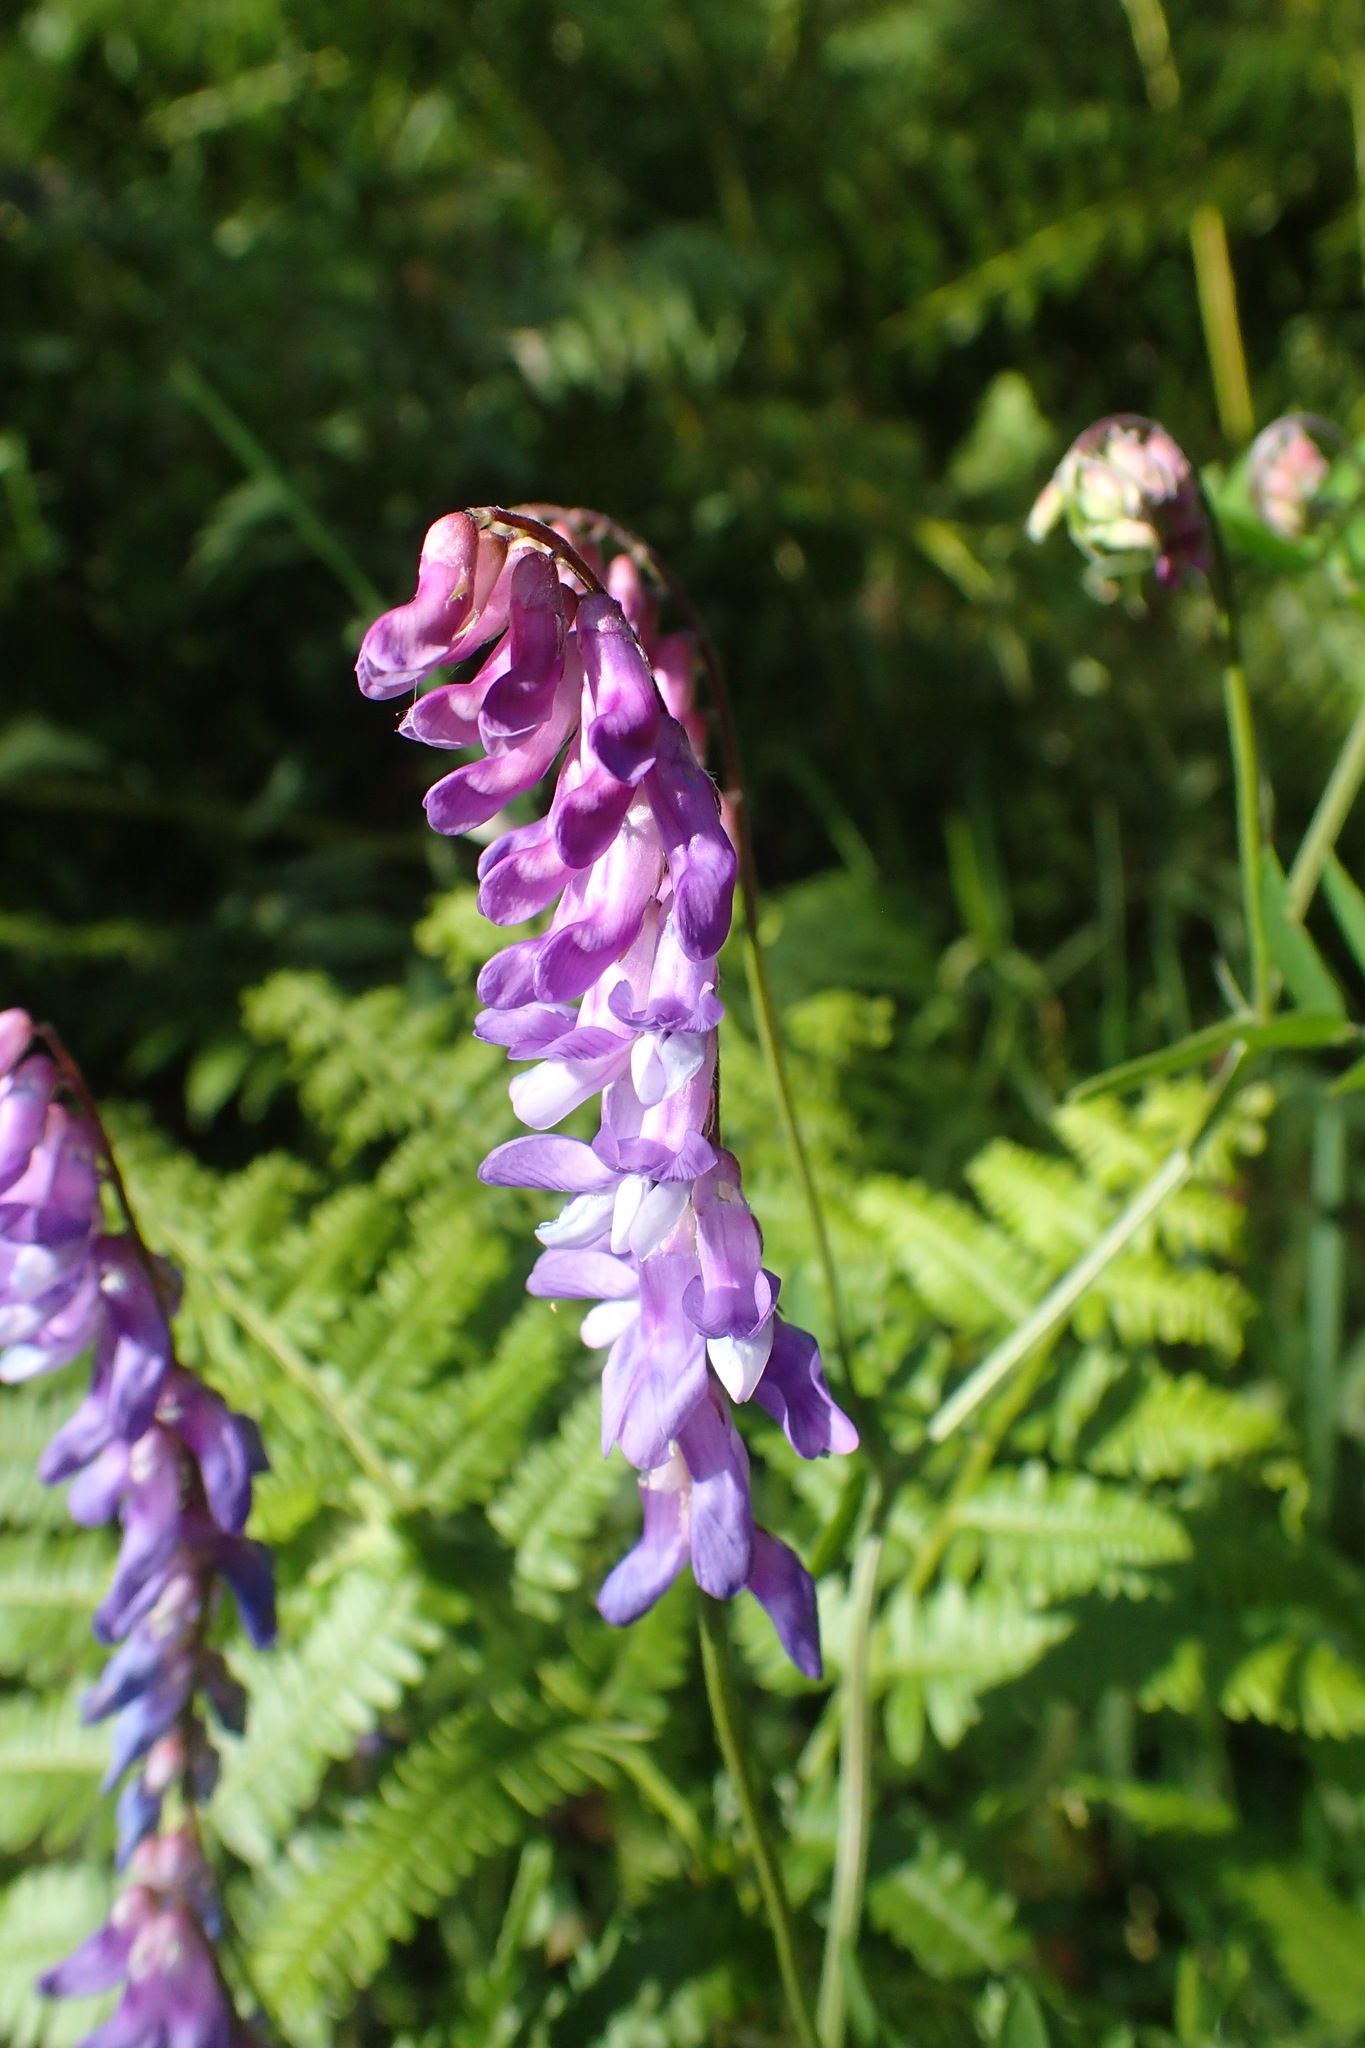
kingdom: Plantae
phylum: Tracheophyta
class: Magnoliopsida
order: Fabales
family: Fabaceae
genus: Vicia
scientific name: Vicia cracca
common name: Bird vetch
